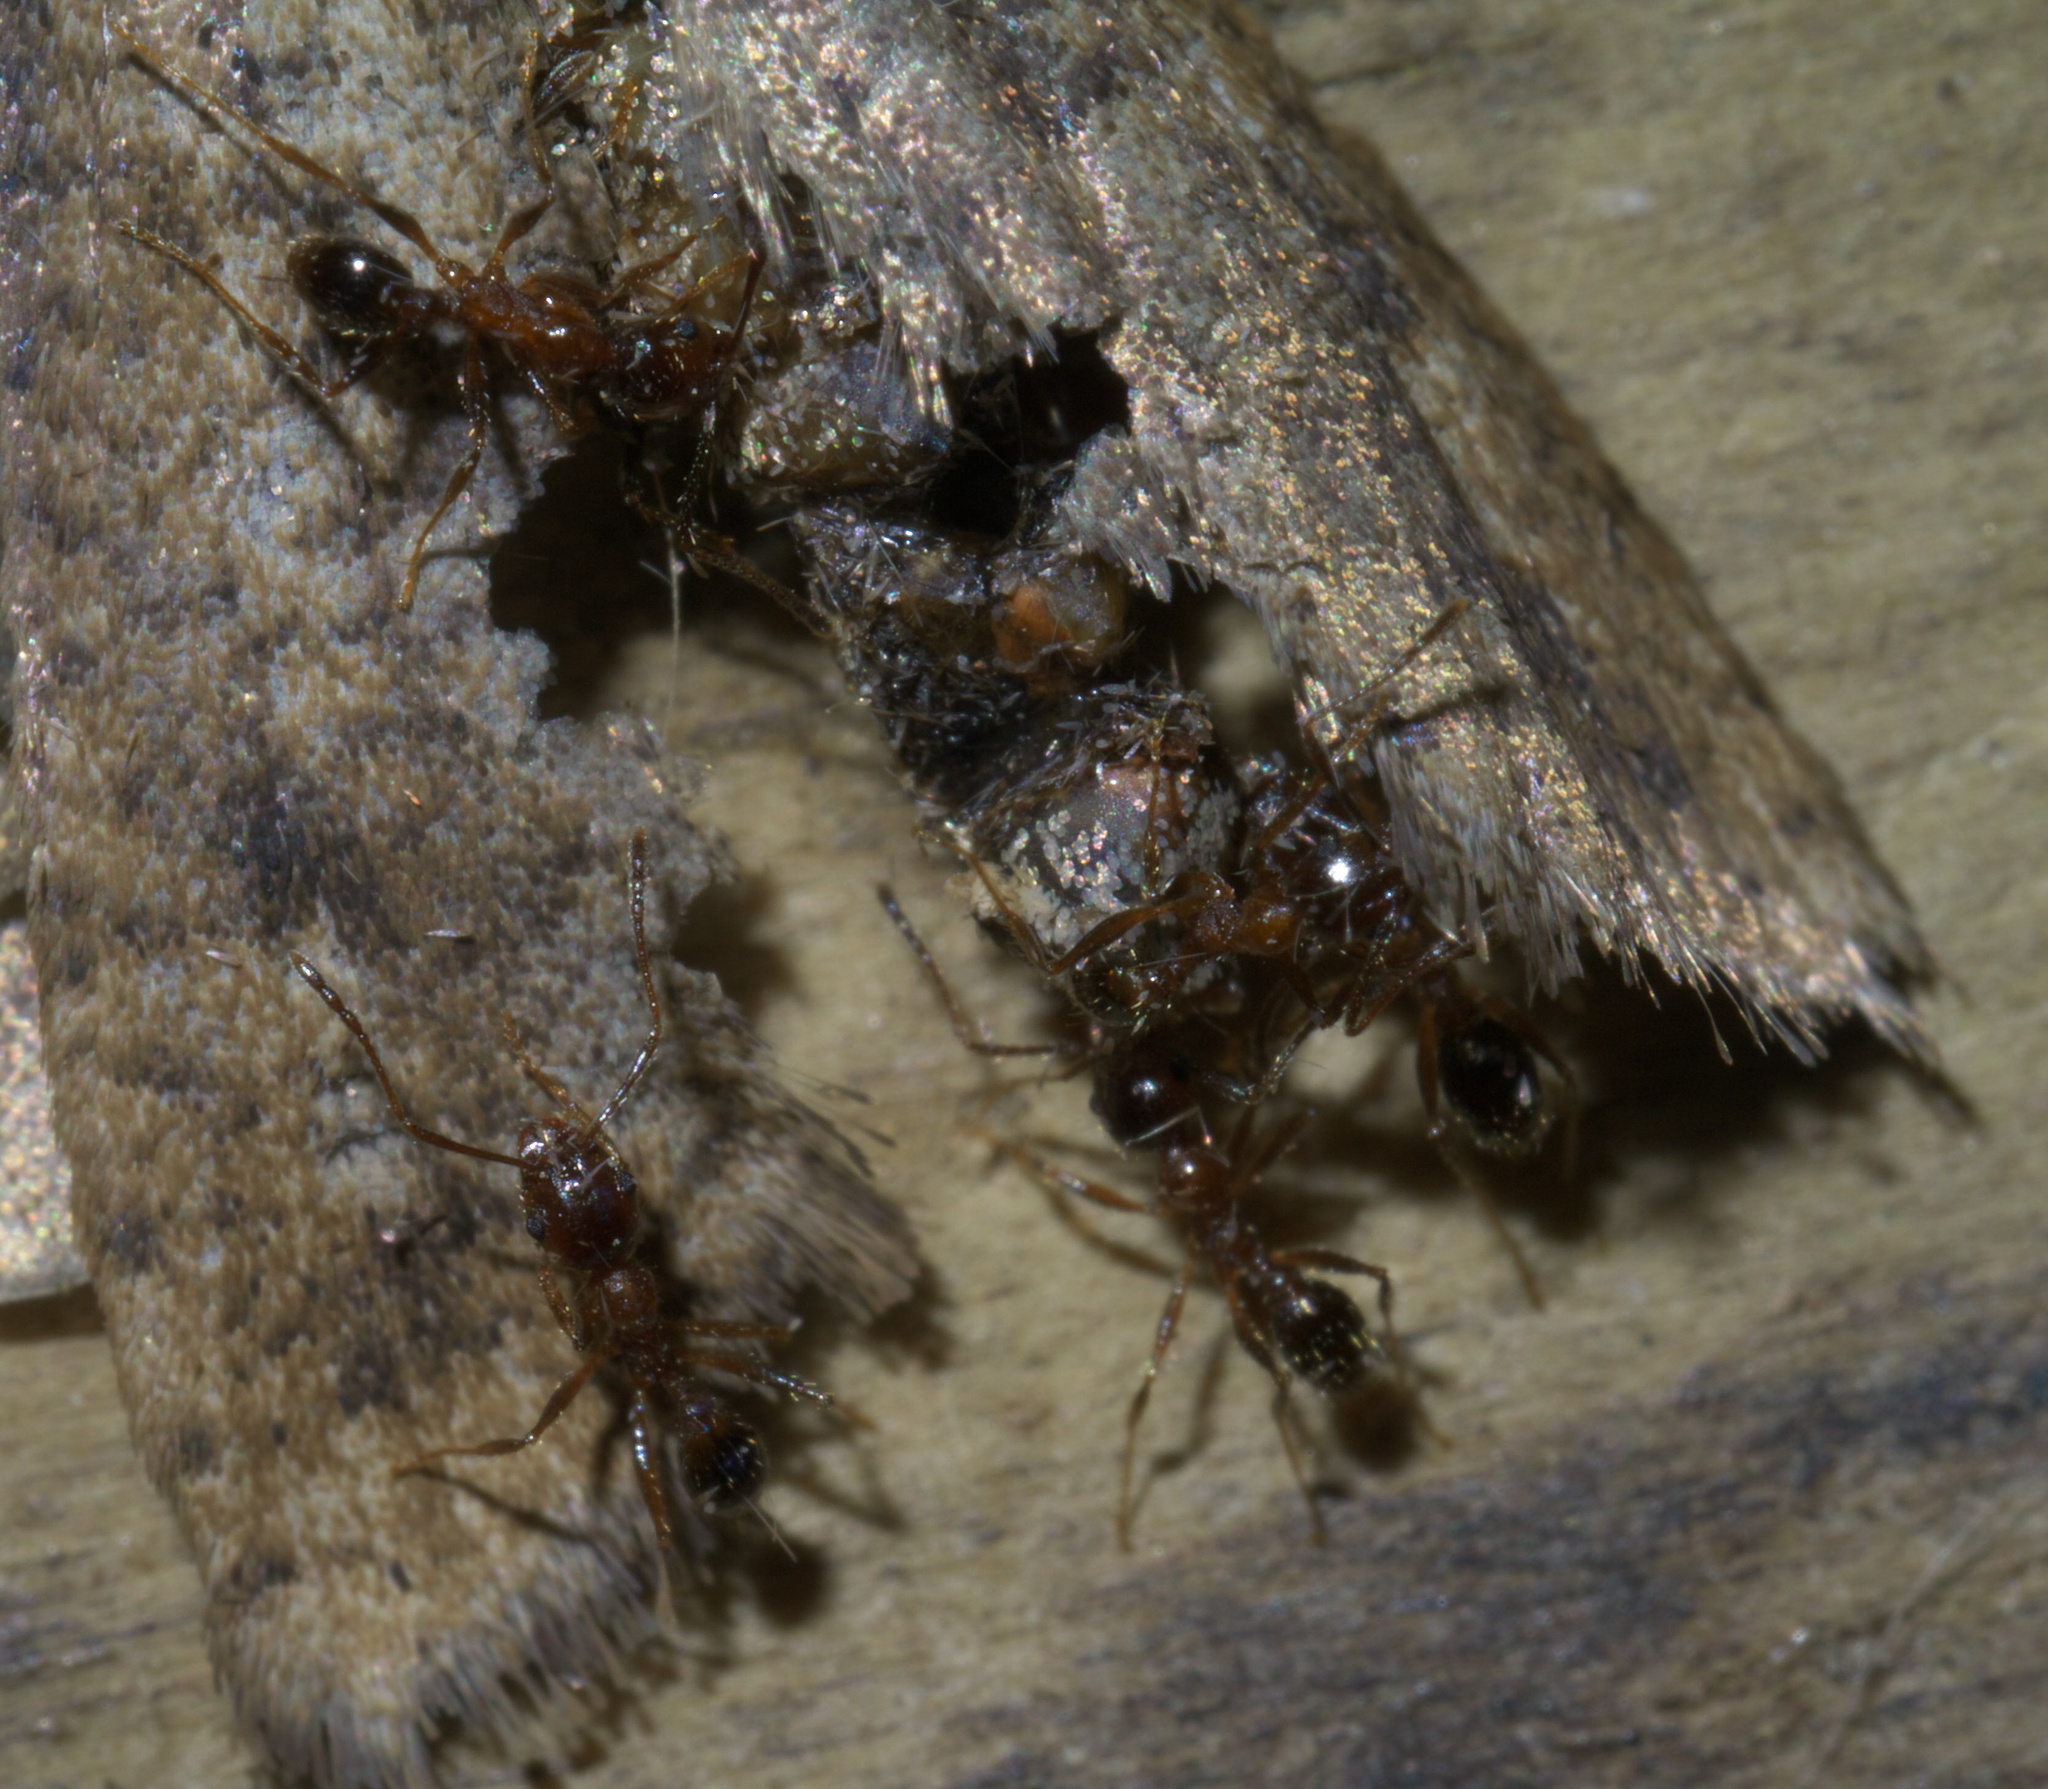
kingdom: Animalia
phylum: Arthropoda
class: Insecta
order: Hymenoptera
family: Formicidae
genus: Pheidole
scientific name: Pheidole dentata
